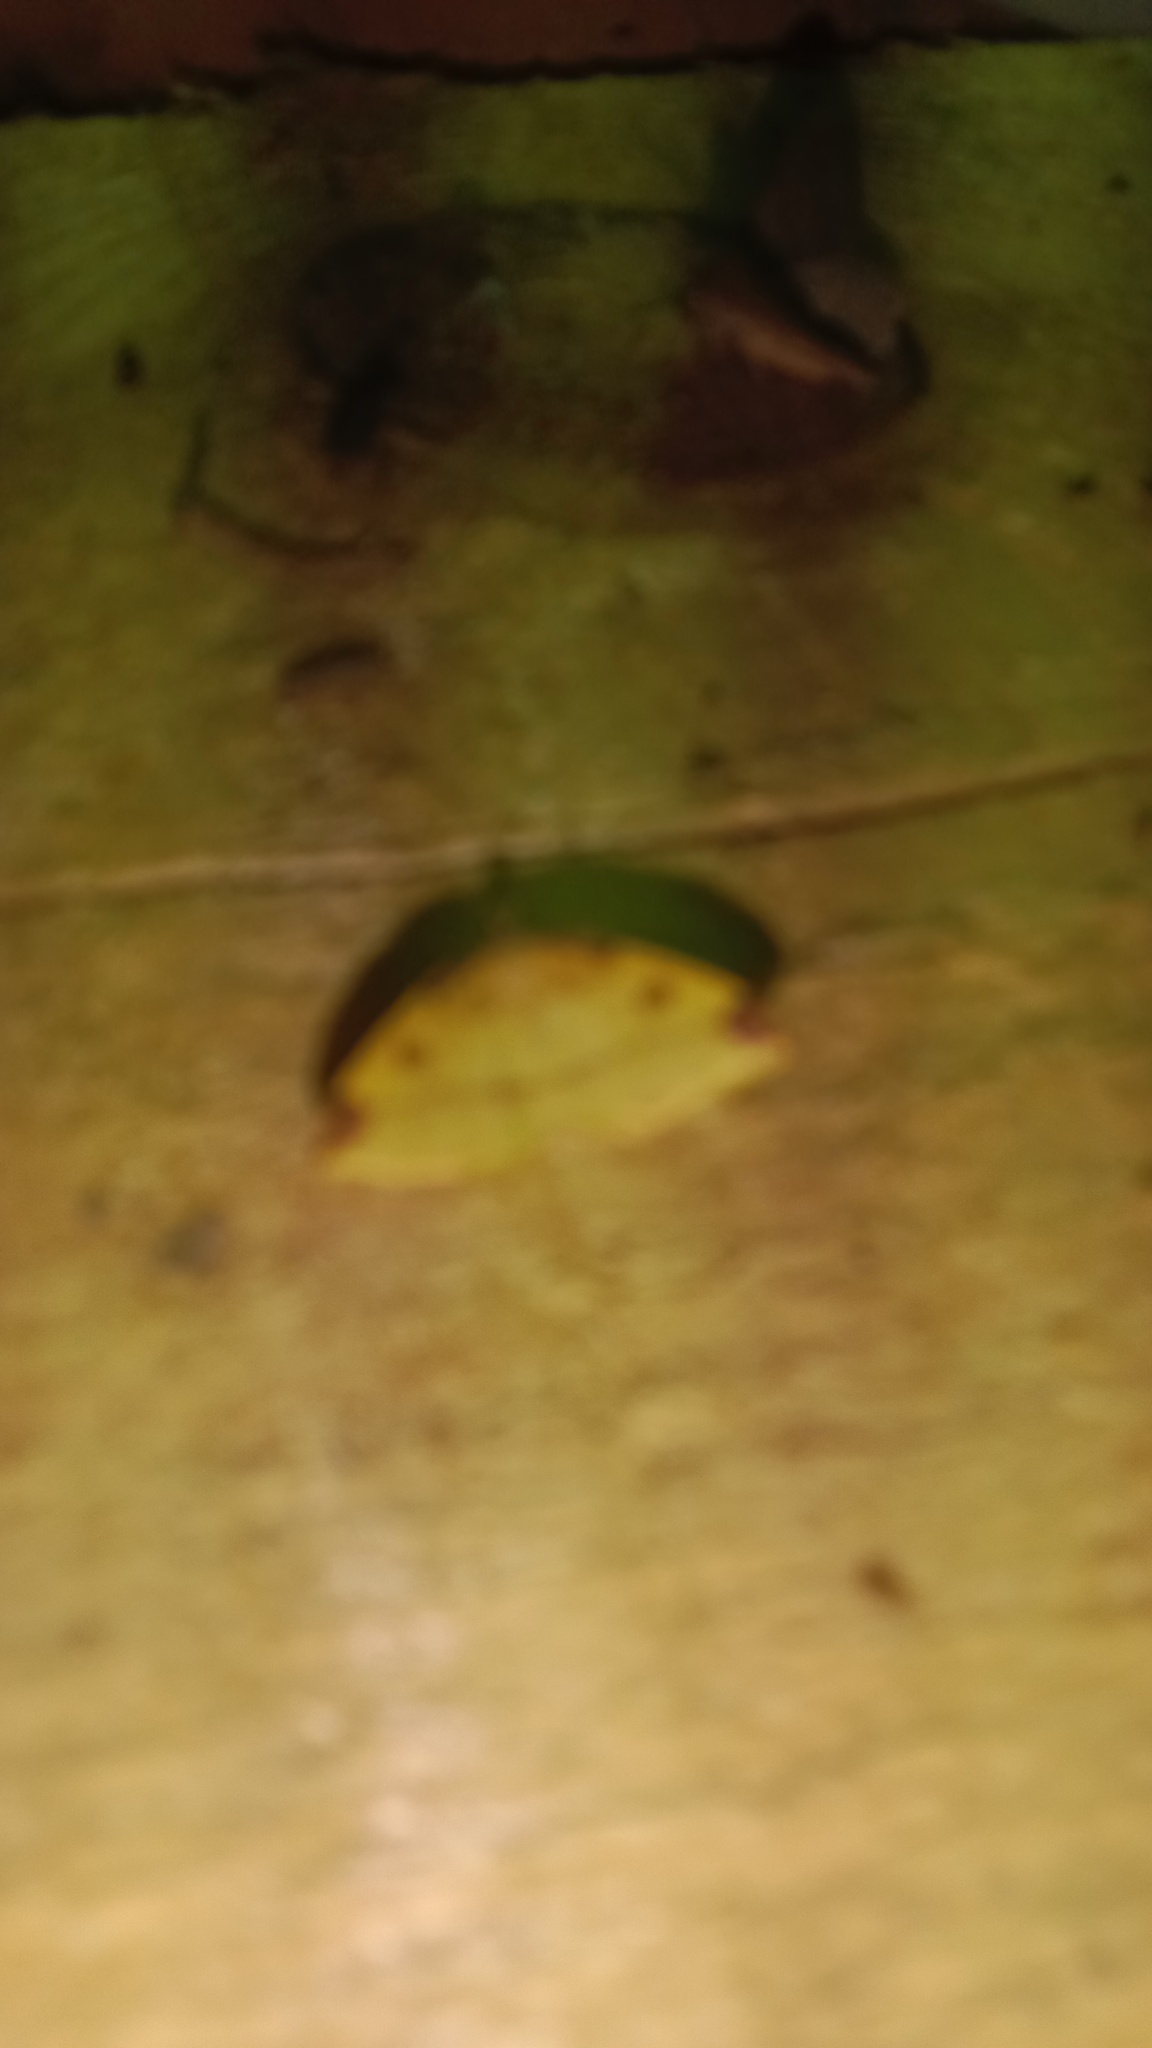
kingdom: Animalia
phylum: Arthropoda
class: Insecta
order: Lepidoptera
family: Geometridae
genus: Heterolocha
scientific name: Heterolocha laminaria
